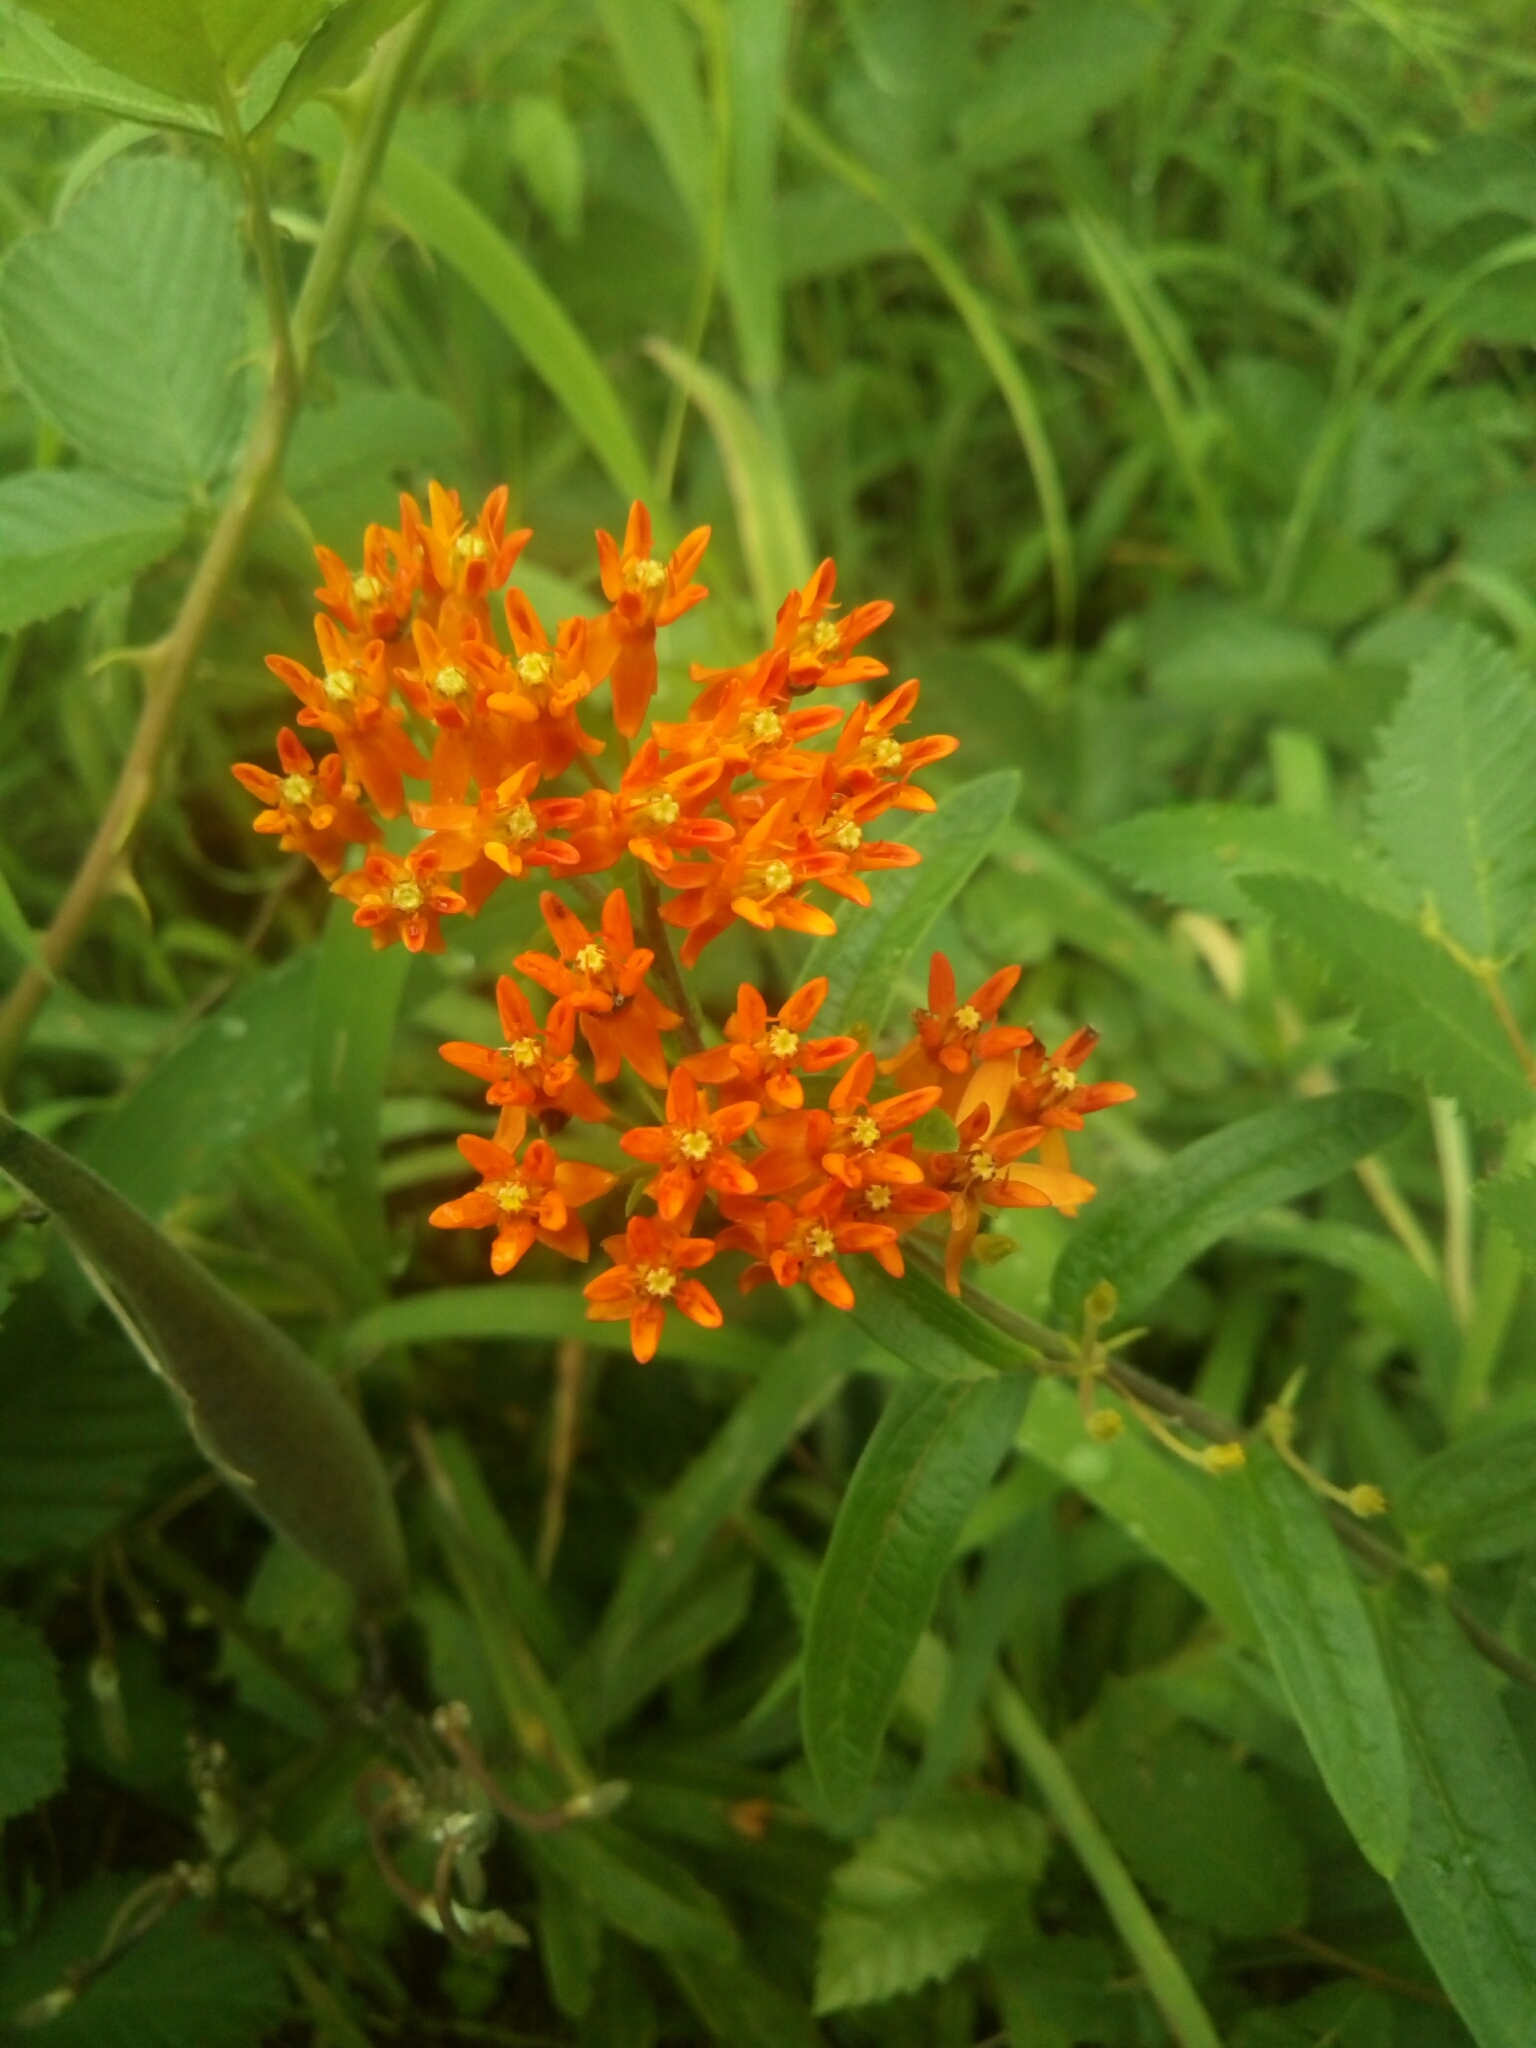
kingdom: Plantae
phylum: Tracheophyta
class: Magnoliopsida
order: Gentianales
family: Apocynaceae
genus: Asclepias
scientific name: Asclepias tuberosa
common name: Butterfly milkweed
